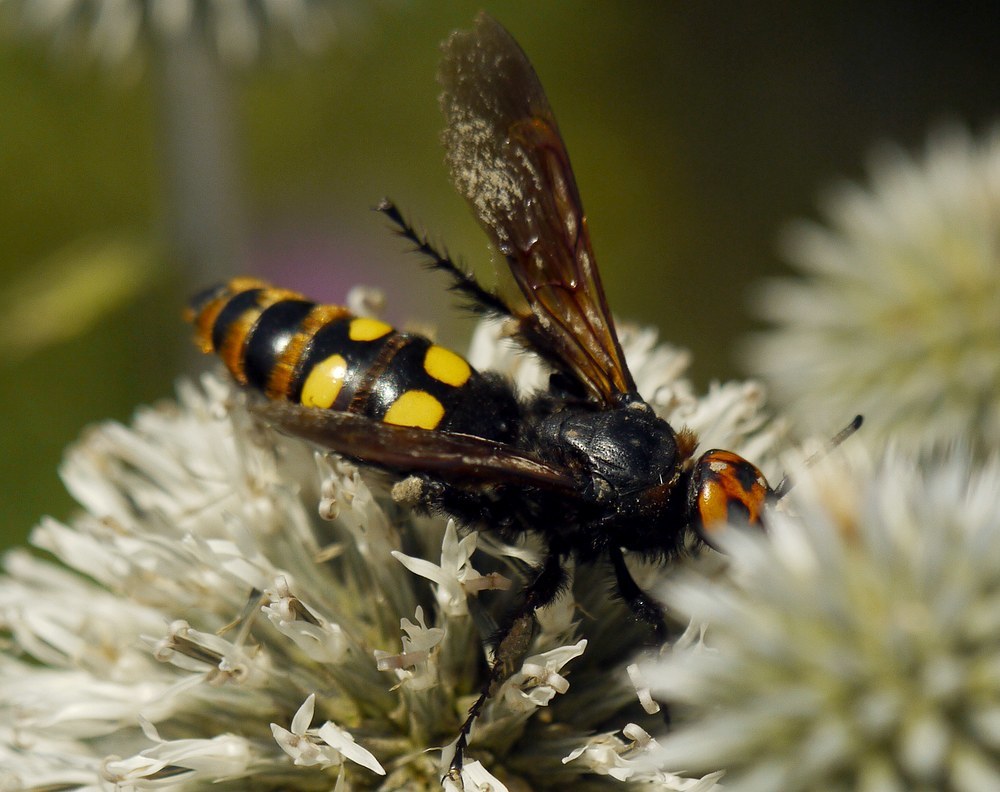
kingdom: Animalia
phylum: Arthropoda
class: Insecta
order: Hymenoptera
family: Scoliidae
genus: Megascolia
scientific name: Megascolia maculata
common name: Mammoth wasp
